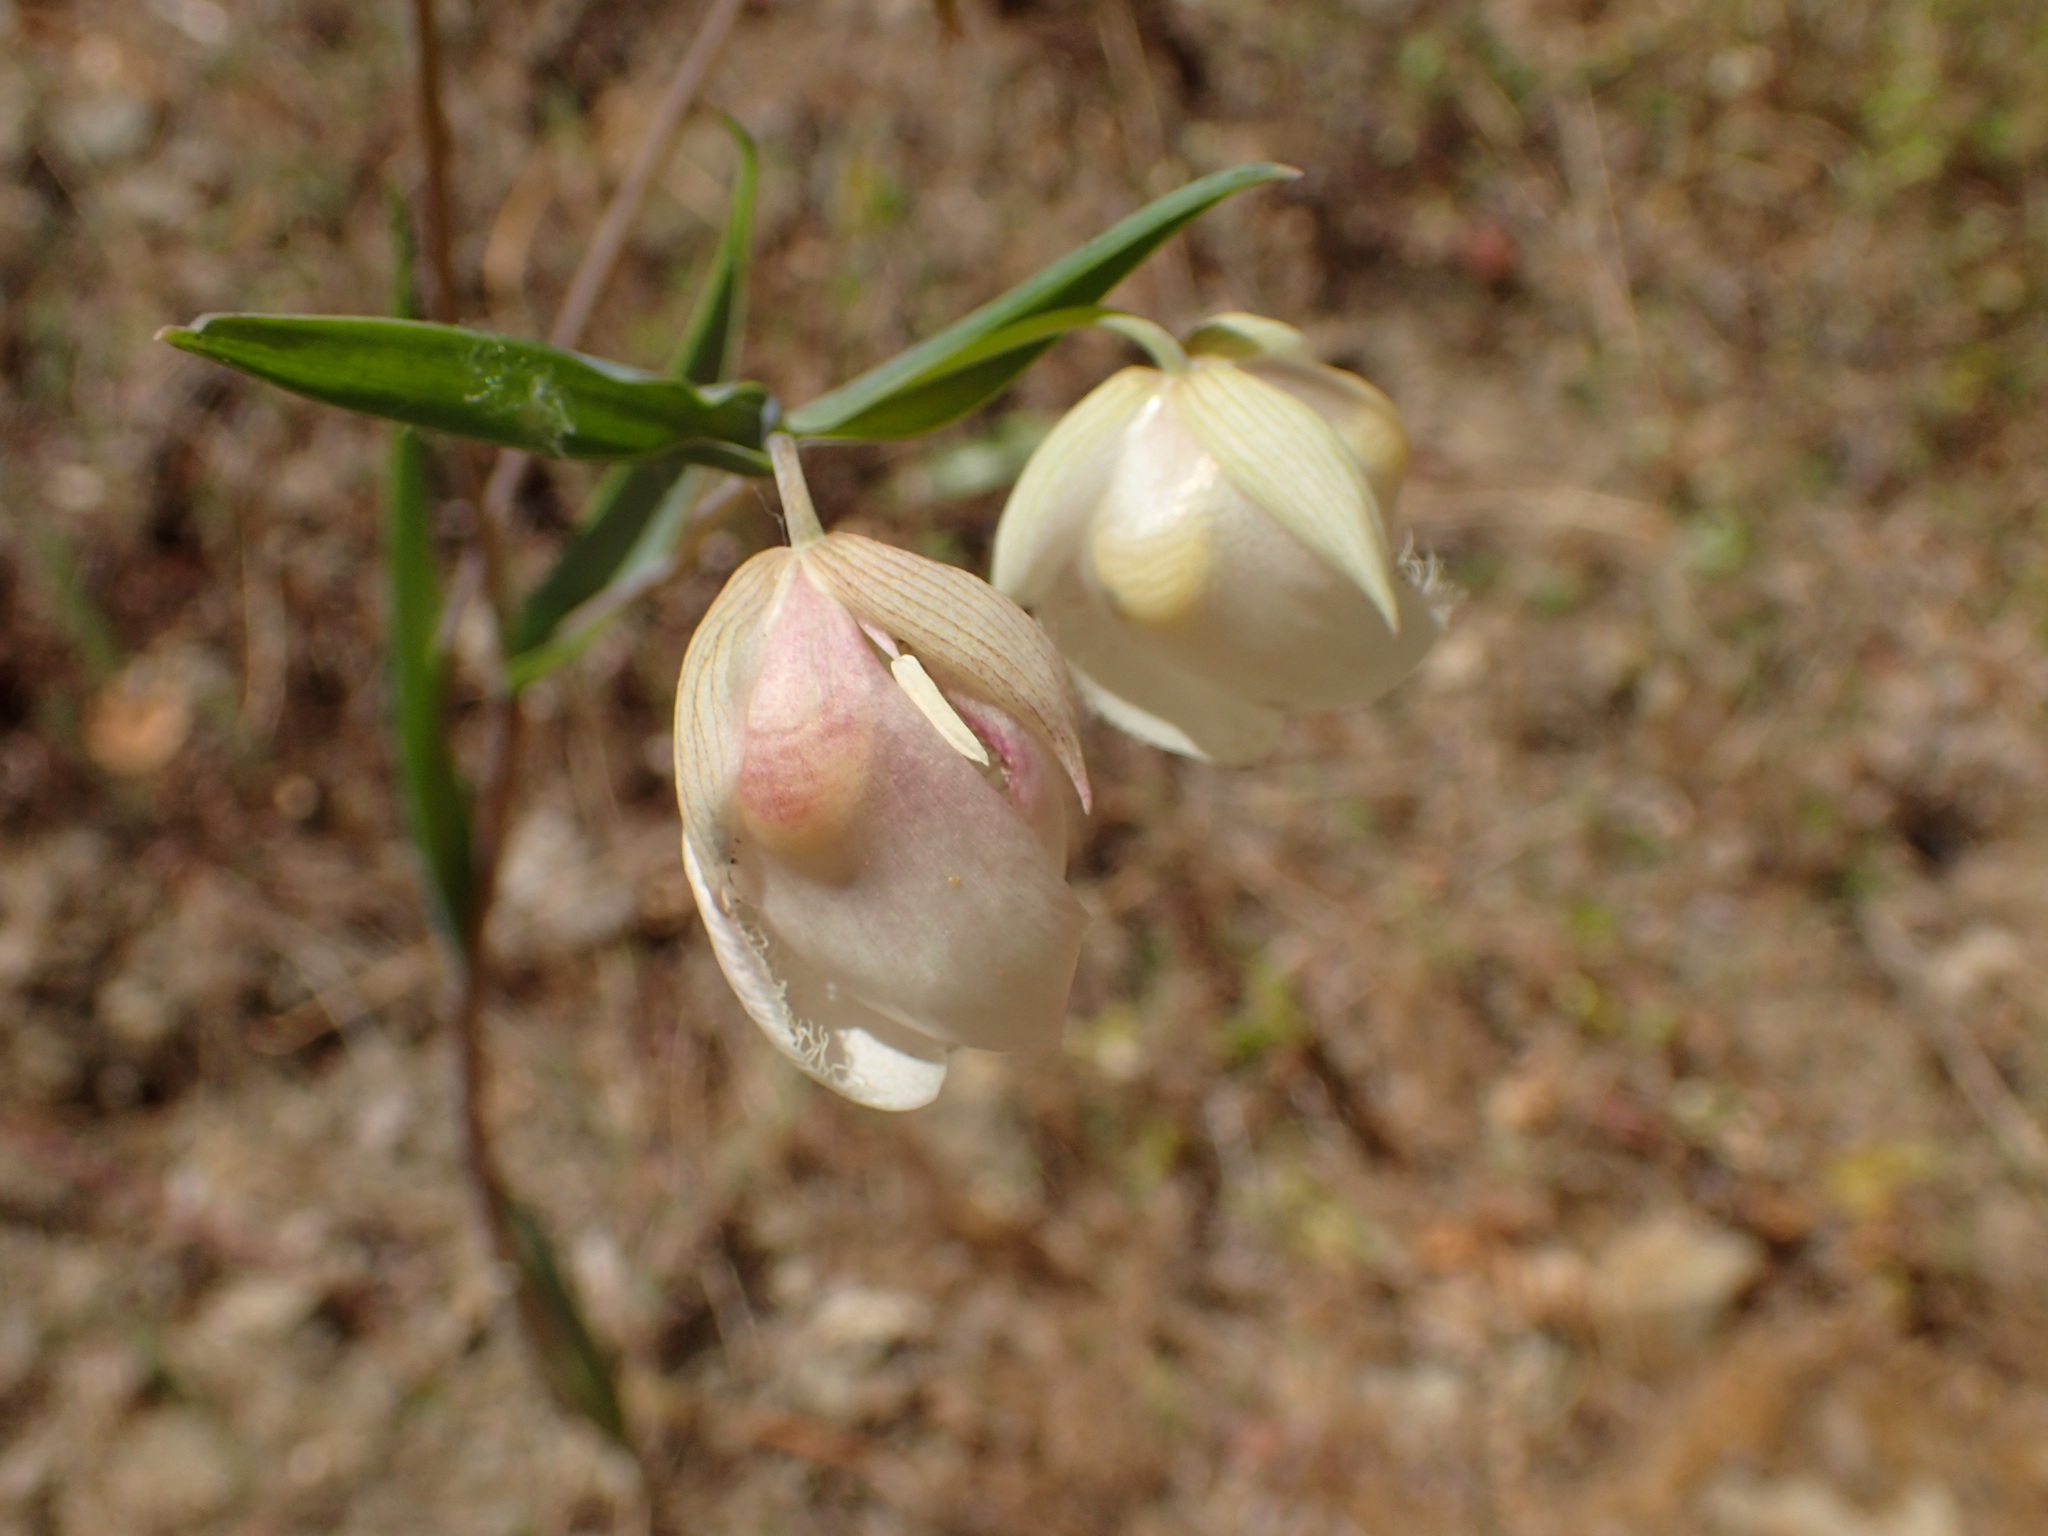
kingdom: Plantae
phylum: Tracheophyta
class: Liliopsida
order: Liliales
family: Liliaceae
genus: Calochortus
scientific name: Calochortus albus
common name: Fairy-lantern
